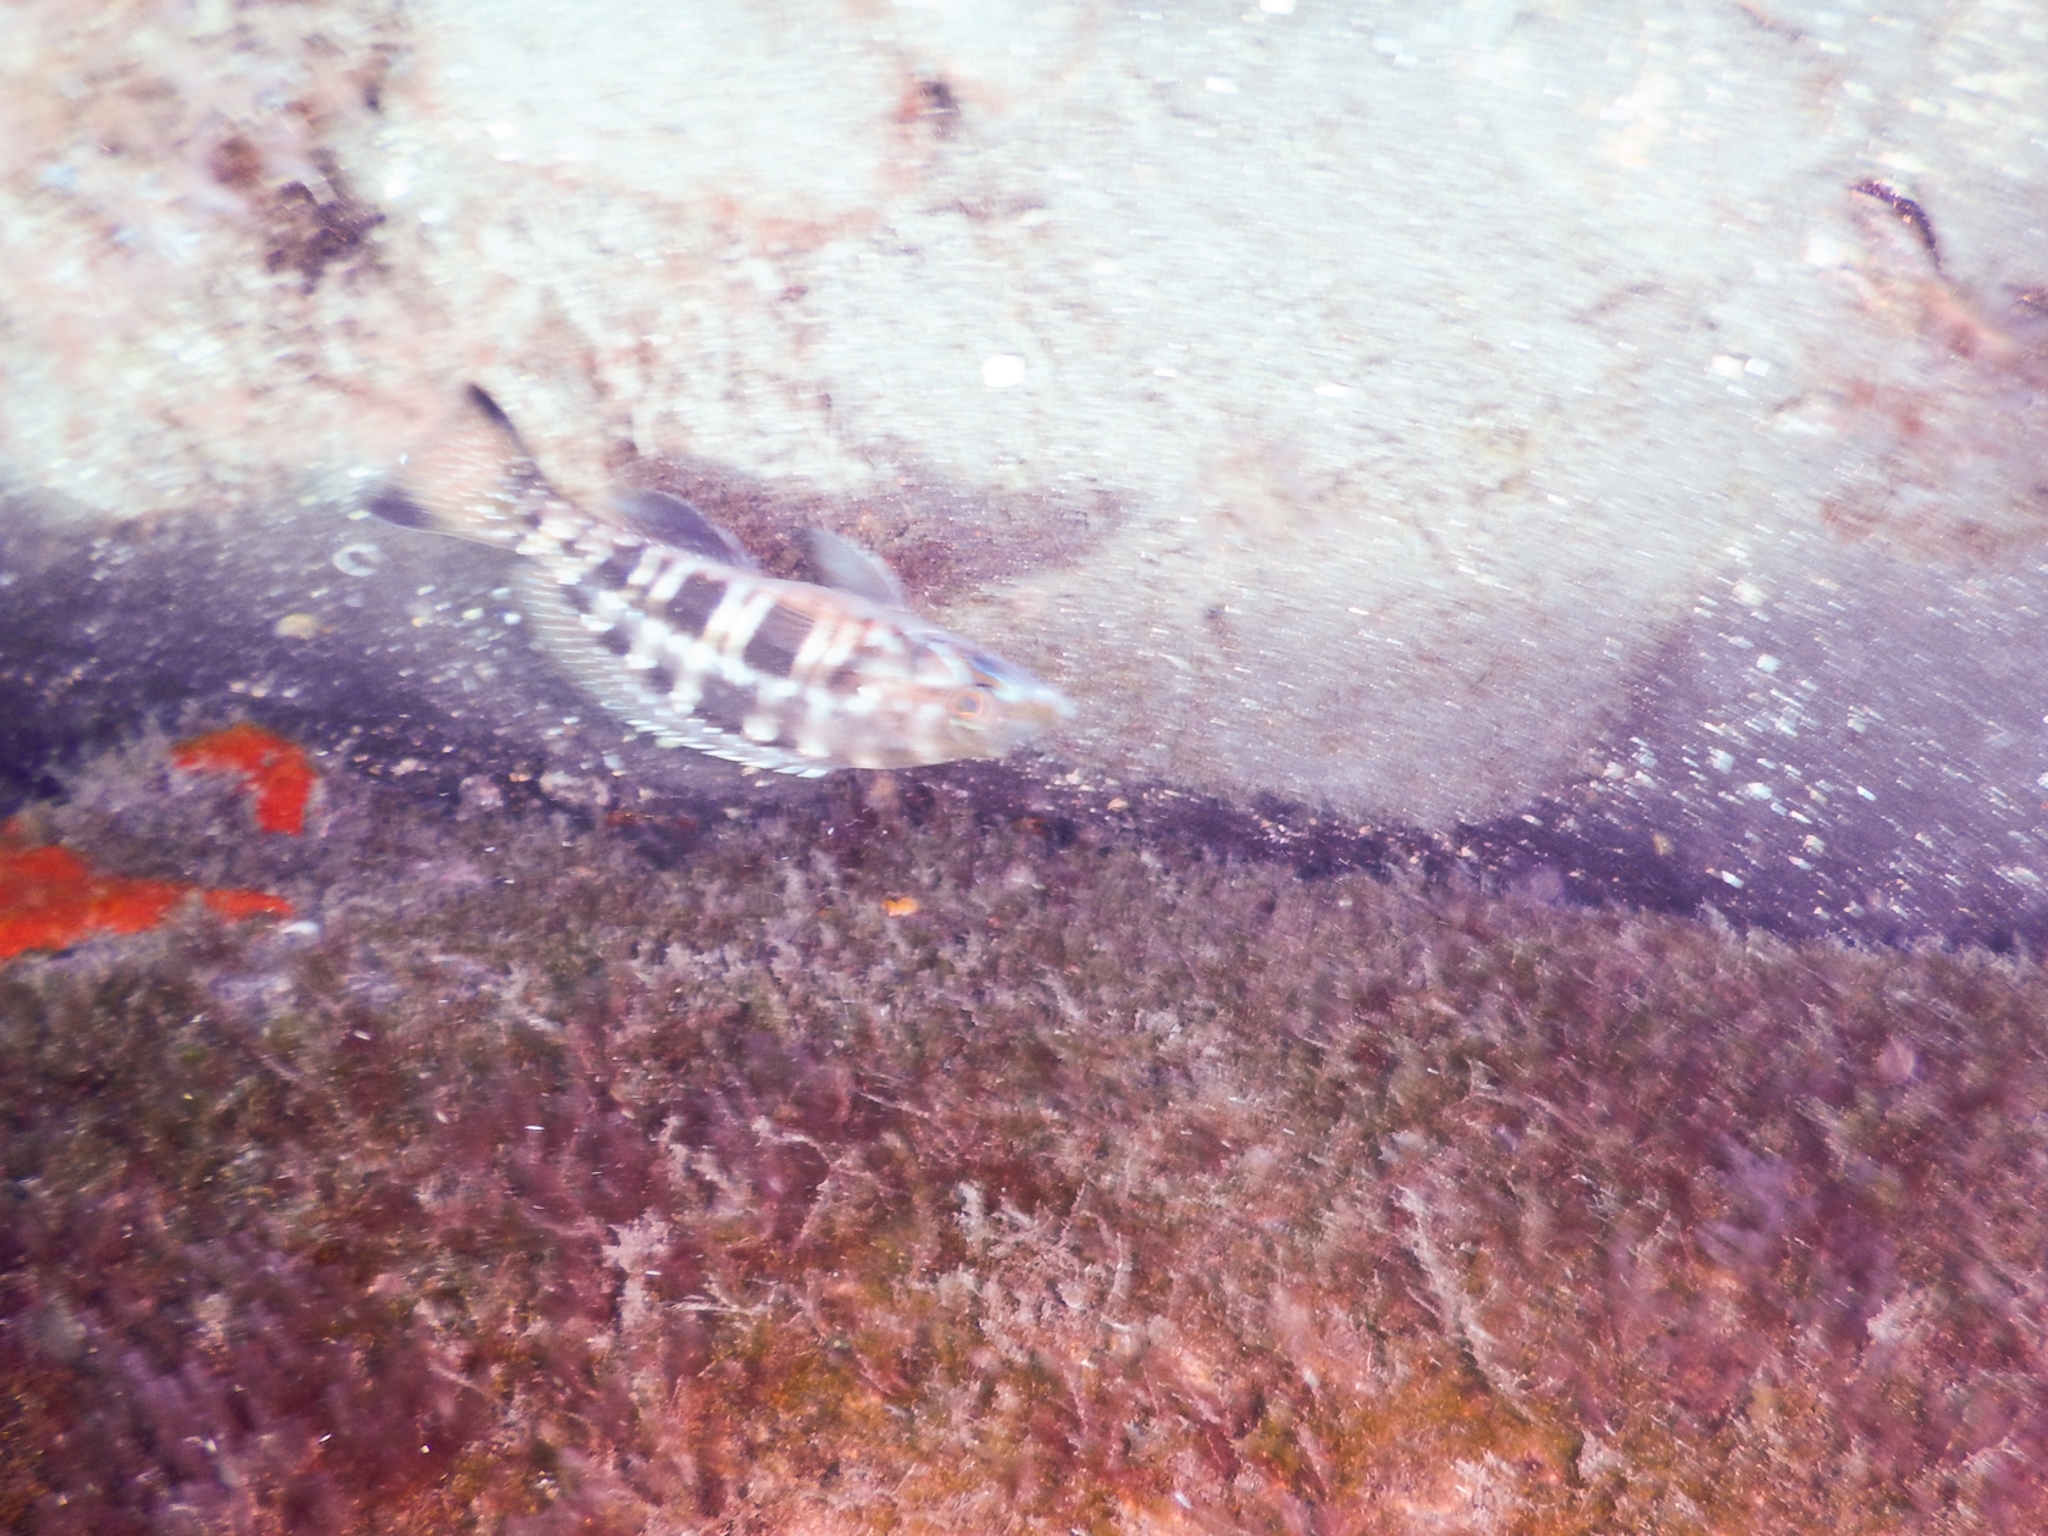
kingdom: Animalia
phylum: Chordata
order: Perciformes
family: Serranidae
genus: Serranus
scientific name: Serranus atricauda
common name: Blacktail comber
